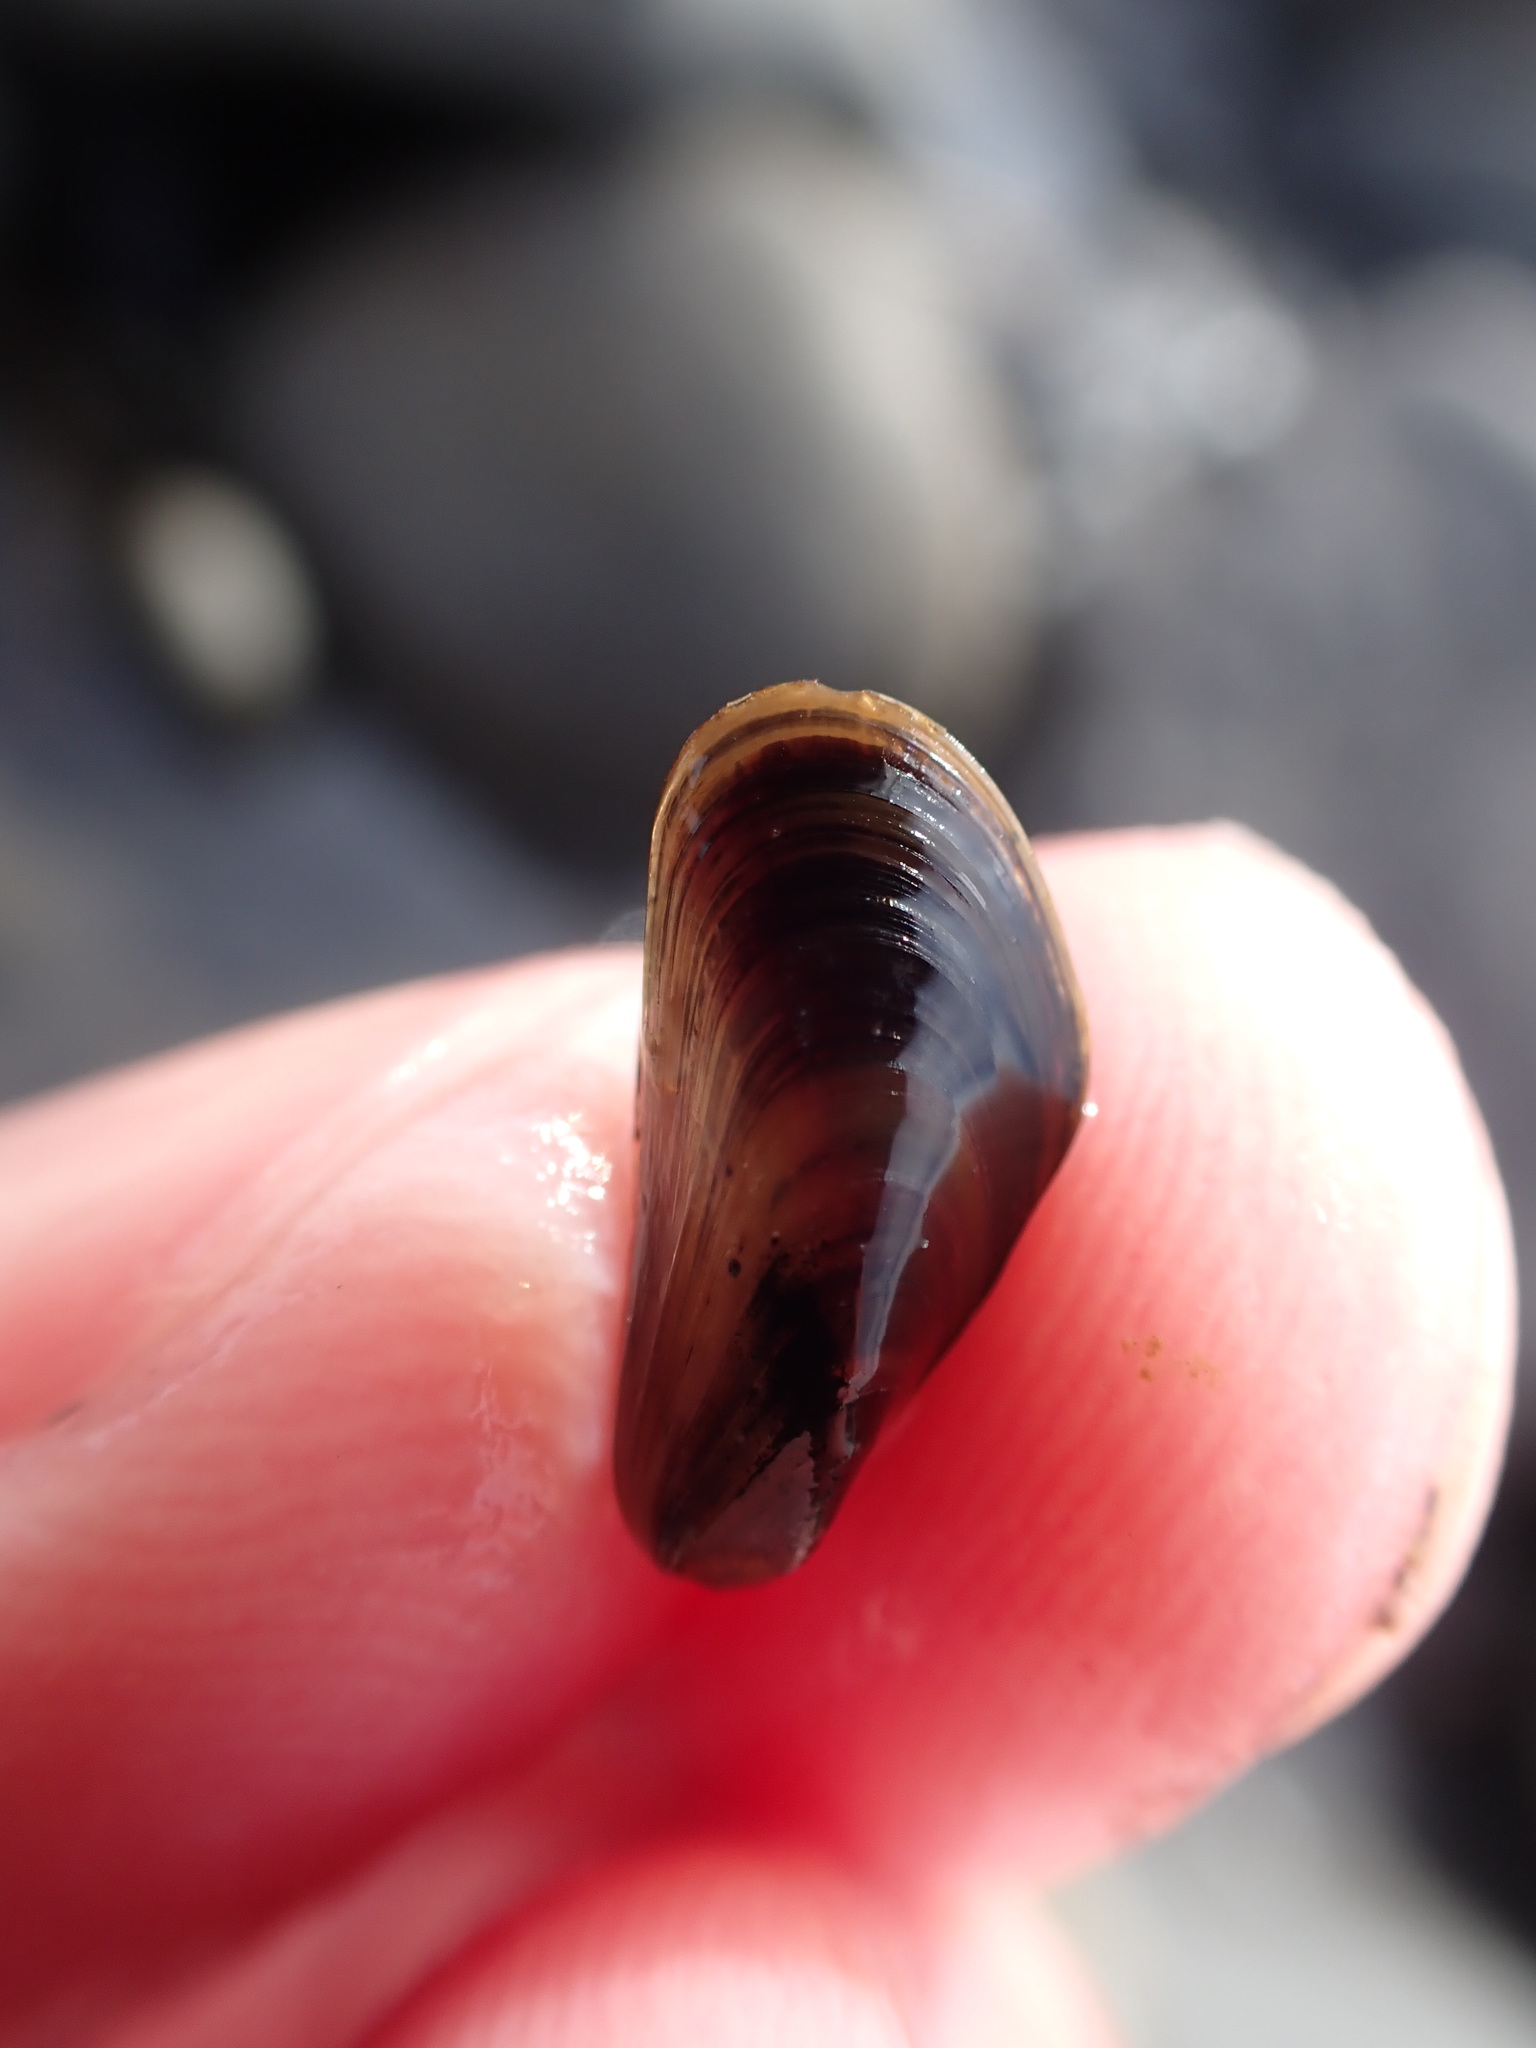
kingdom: Animalia
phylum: Mollusca
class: Bivalvia
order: Mytilida
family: Mytilidae
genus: Xenostrobus
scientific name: Xenostrobus neozelanicus
